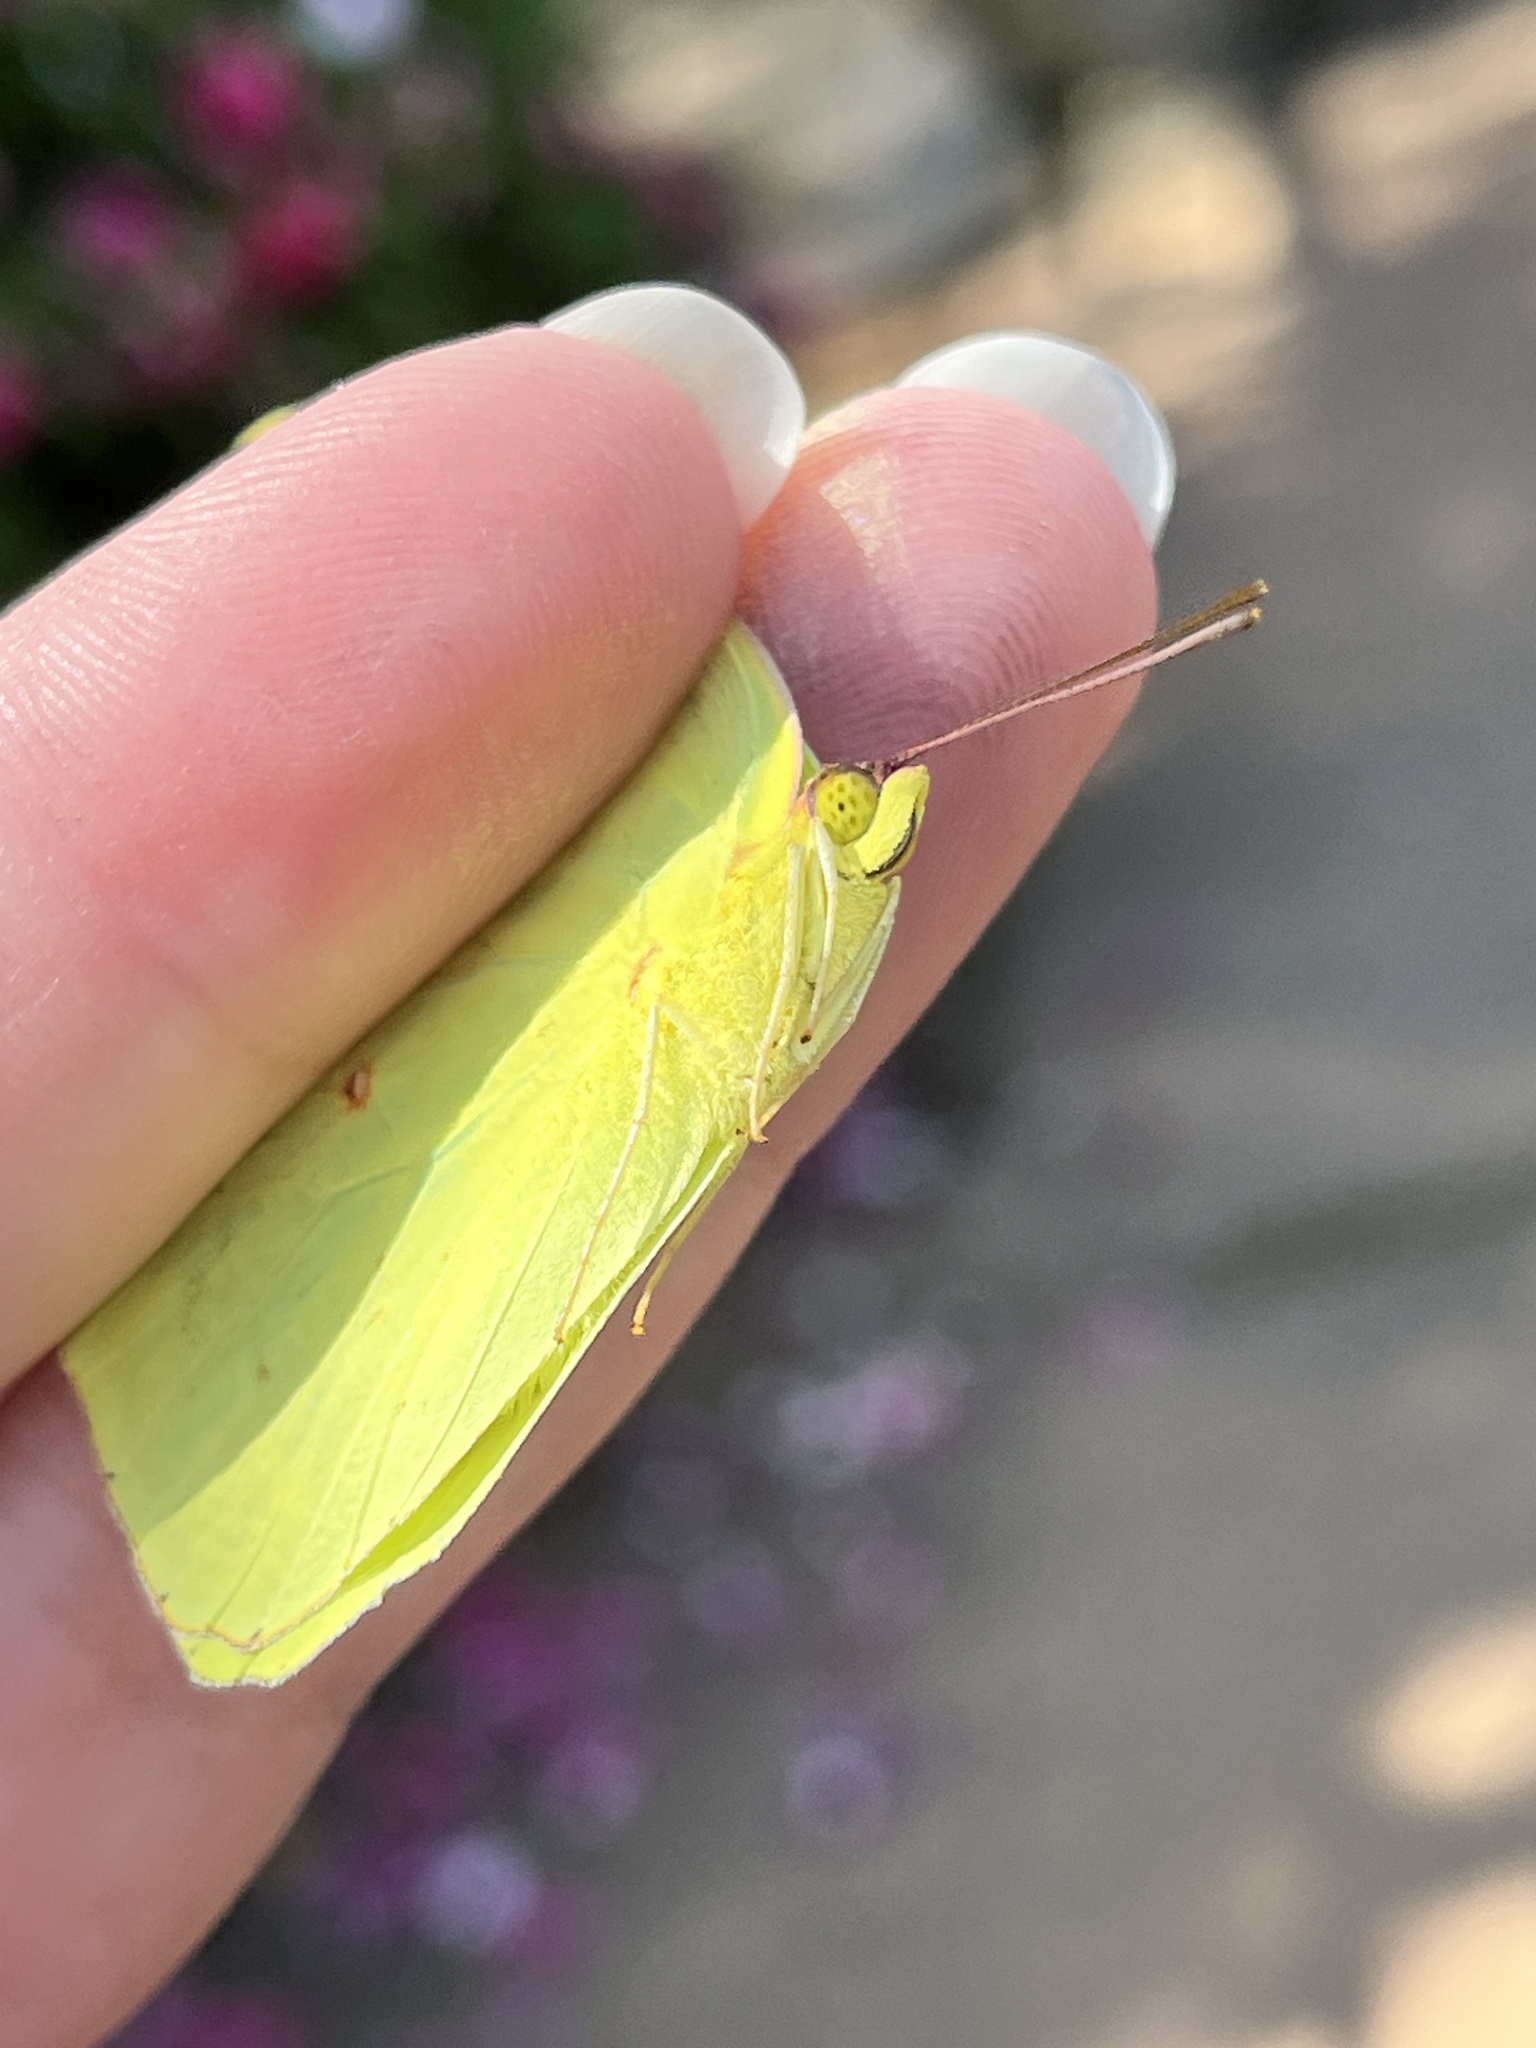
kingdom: Animalia
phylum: Arthropoda
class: Insecta
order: Lepidoptera
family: Pieridae
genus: Phoebis
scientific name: Phoebis sennae
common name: Cloudless sulphur
